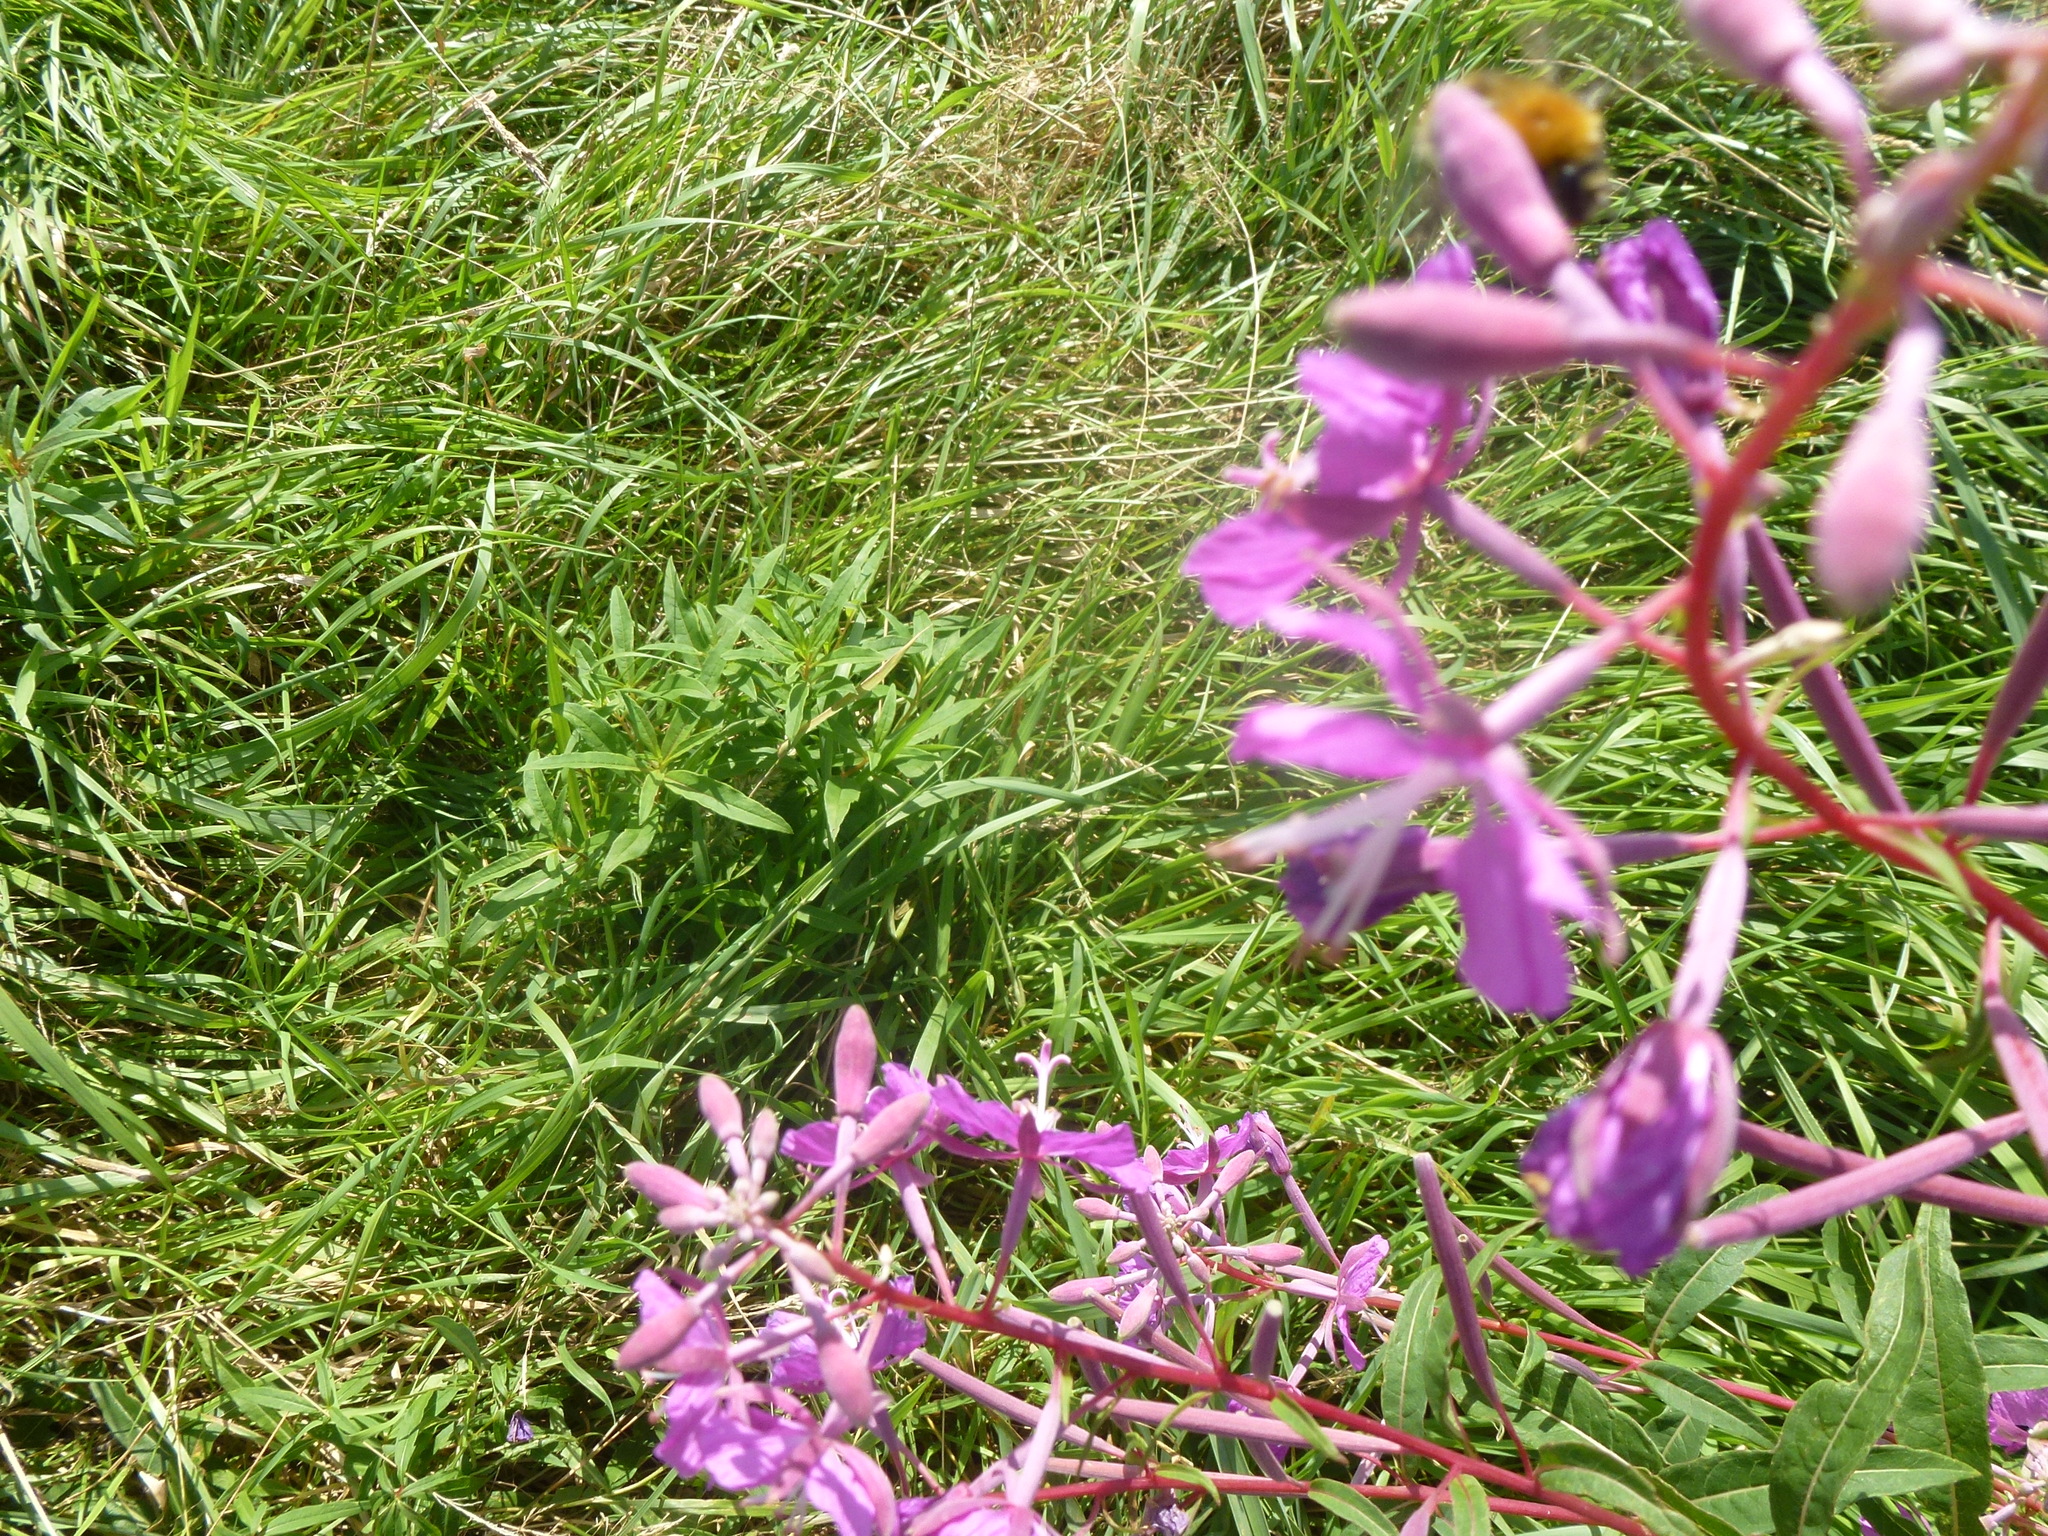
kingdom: Plantae
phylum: Tracheophyta
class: Magnoliopsida
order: Myrtales
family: Onagraceae
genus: Chamaenerion
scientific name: Chamaenerion angustifolium
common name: Fireweed
